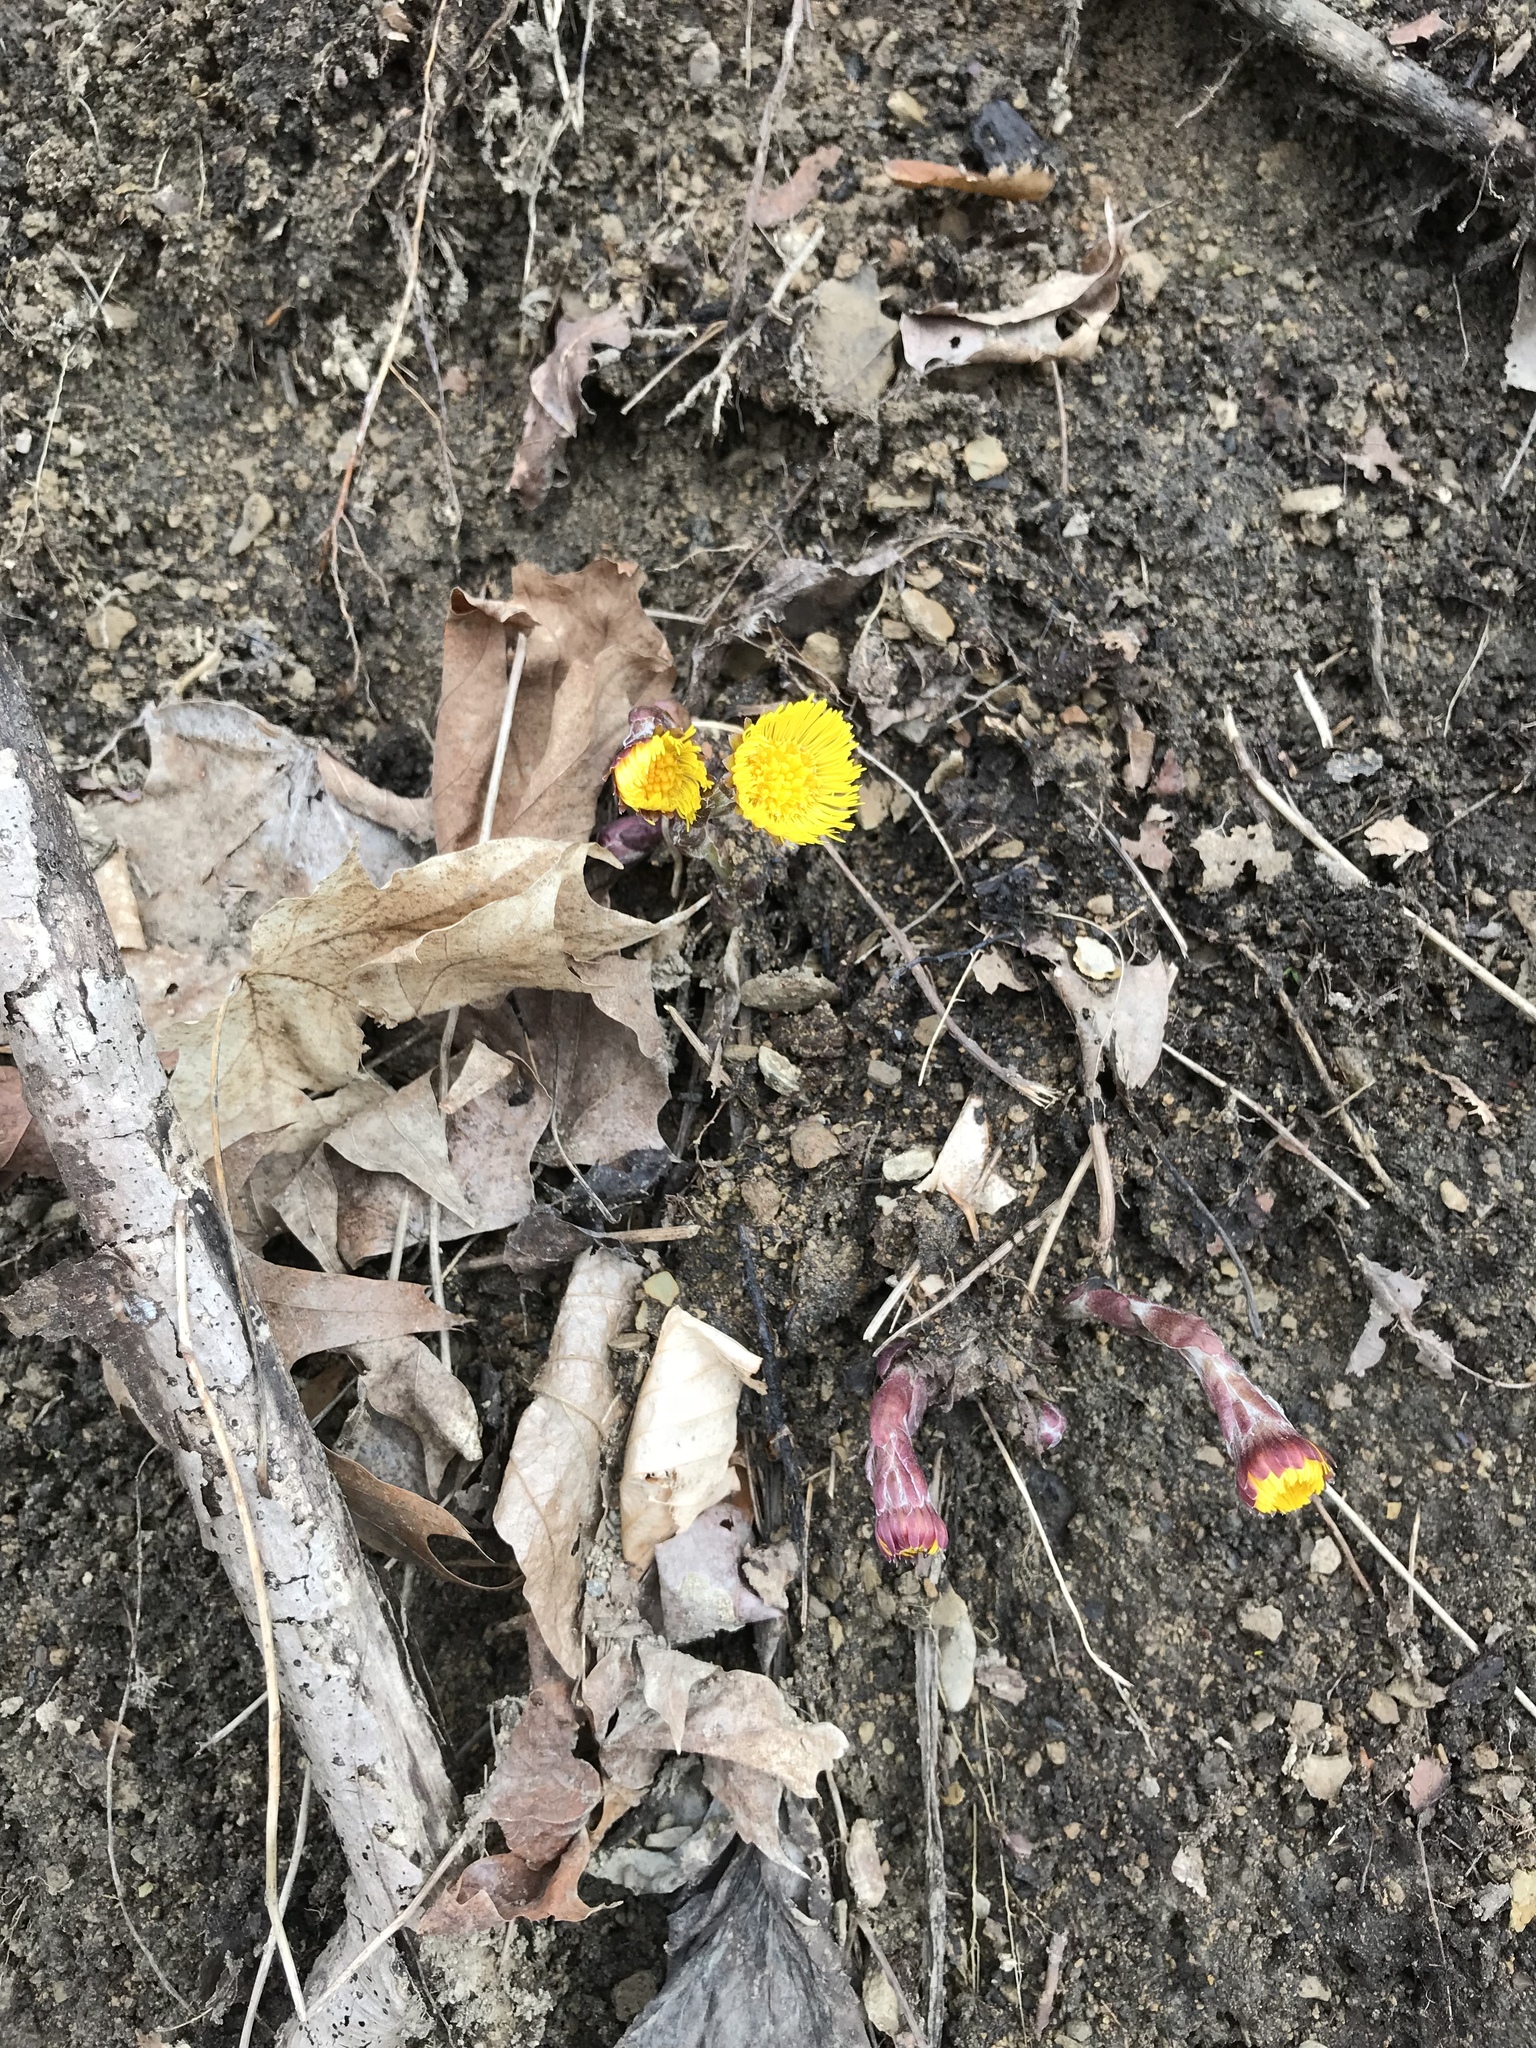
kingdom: Plantae
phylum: Tracheophyta
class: Magnoliopsida
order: Asterales
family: Asteraceae
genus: Tussilago
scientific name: Tussilago farfara
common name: Coltsfoot
